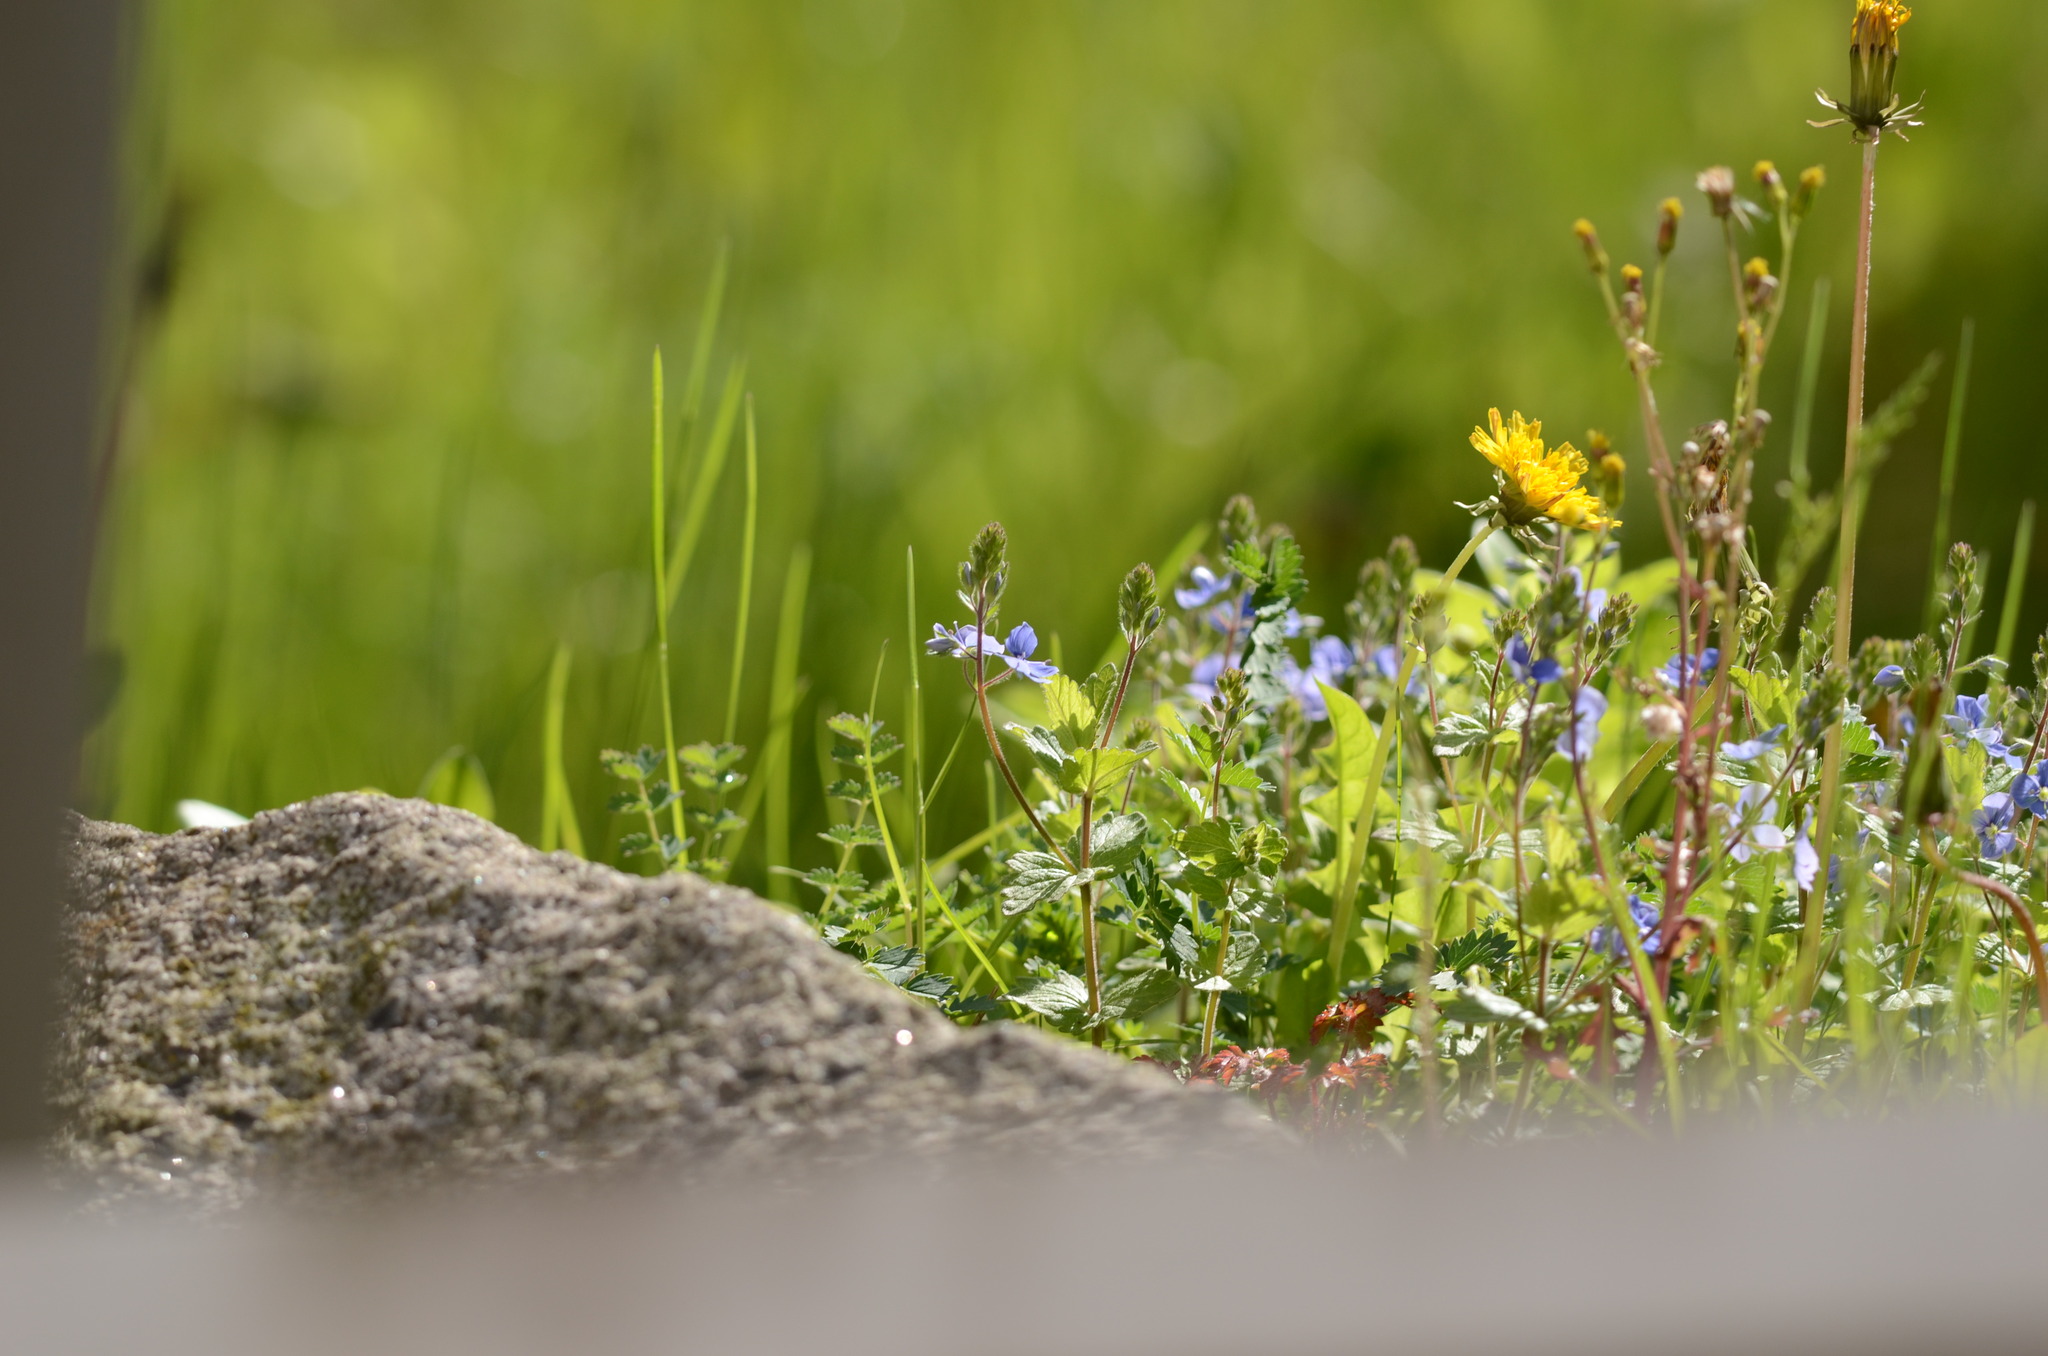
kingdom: Plantae
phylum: Tracheophyta
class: Magnoliopsida
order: Lamiales
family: Plantaginaceae
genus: Veronica
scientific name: Veronica chamaedrys
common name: Germander speedwell
